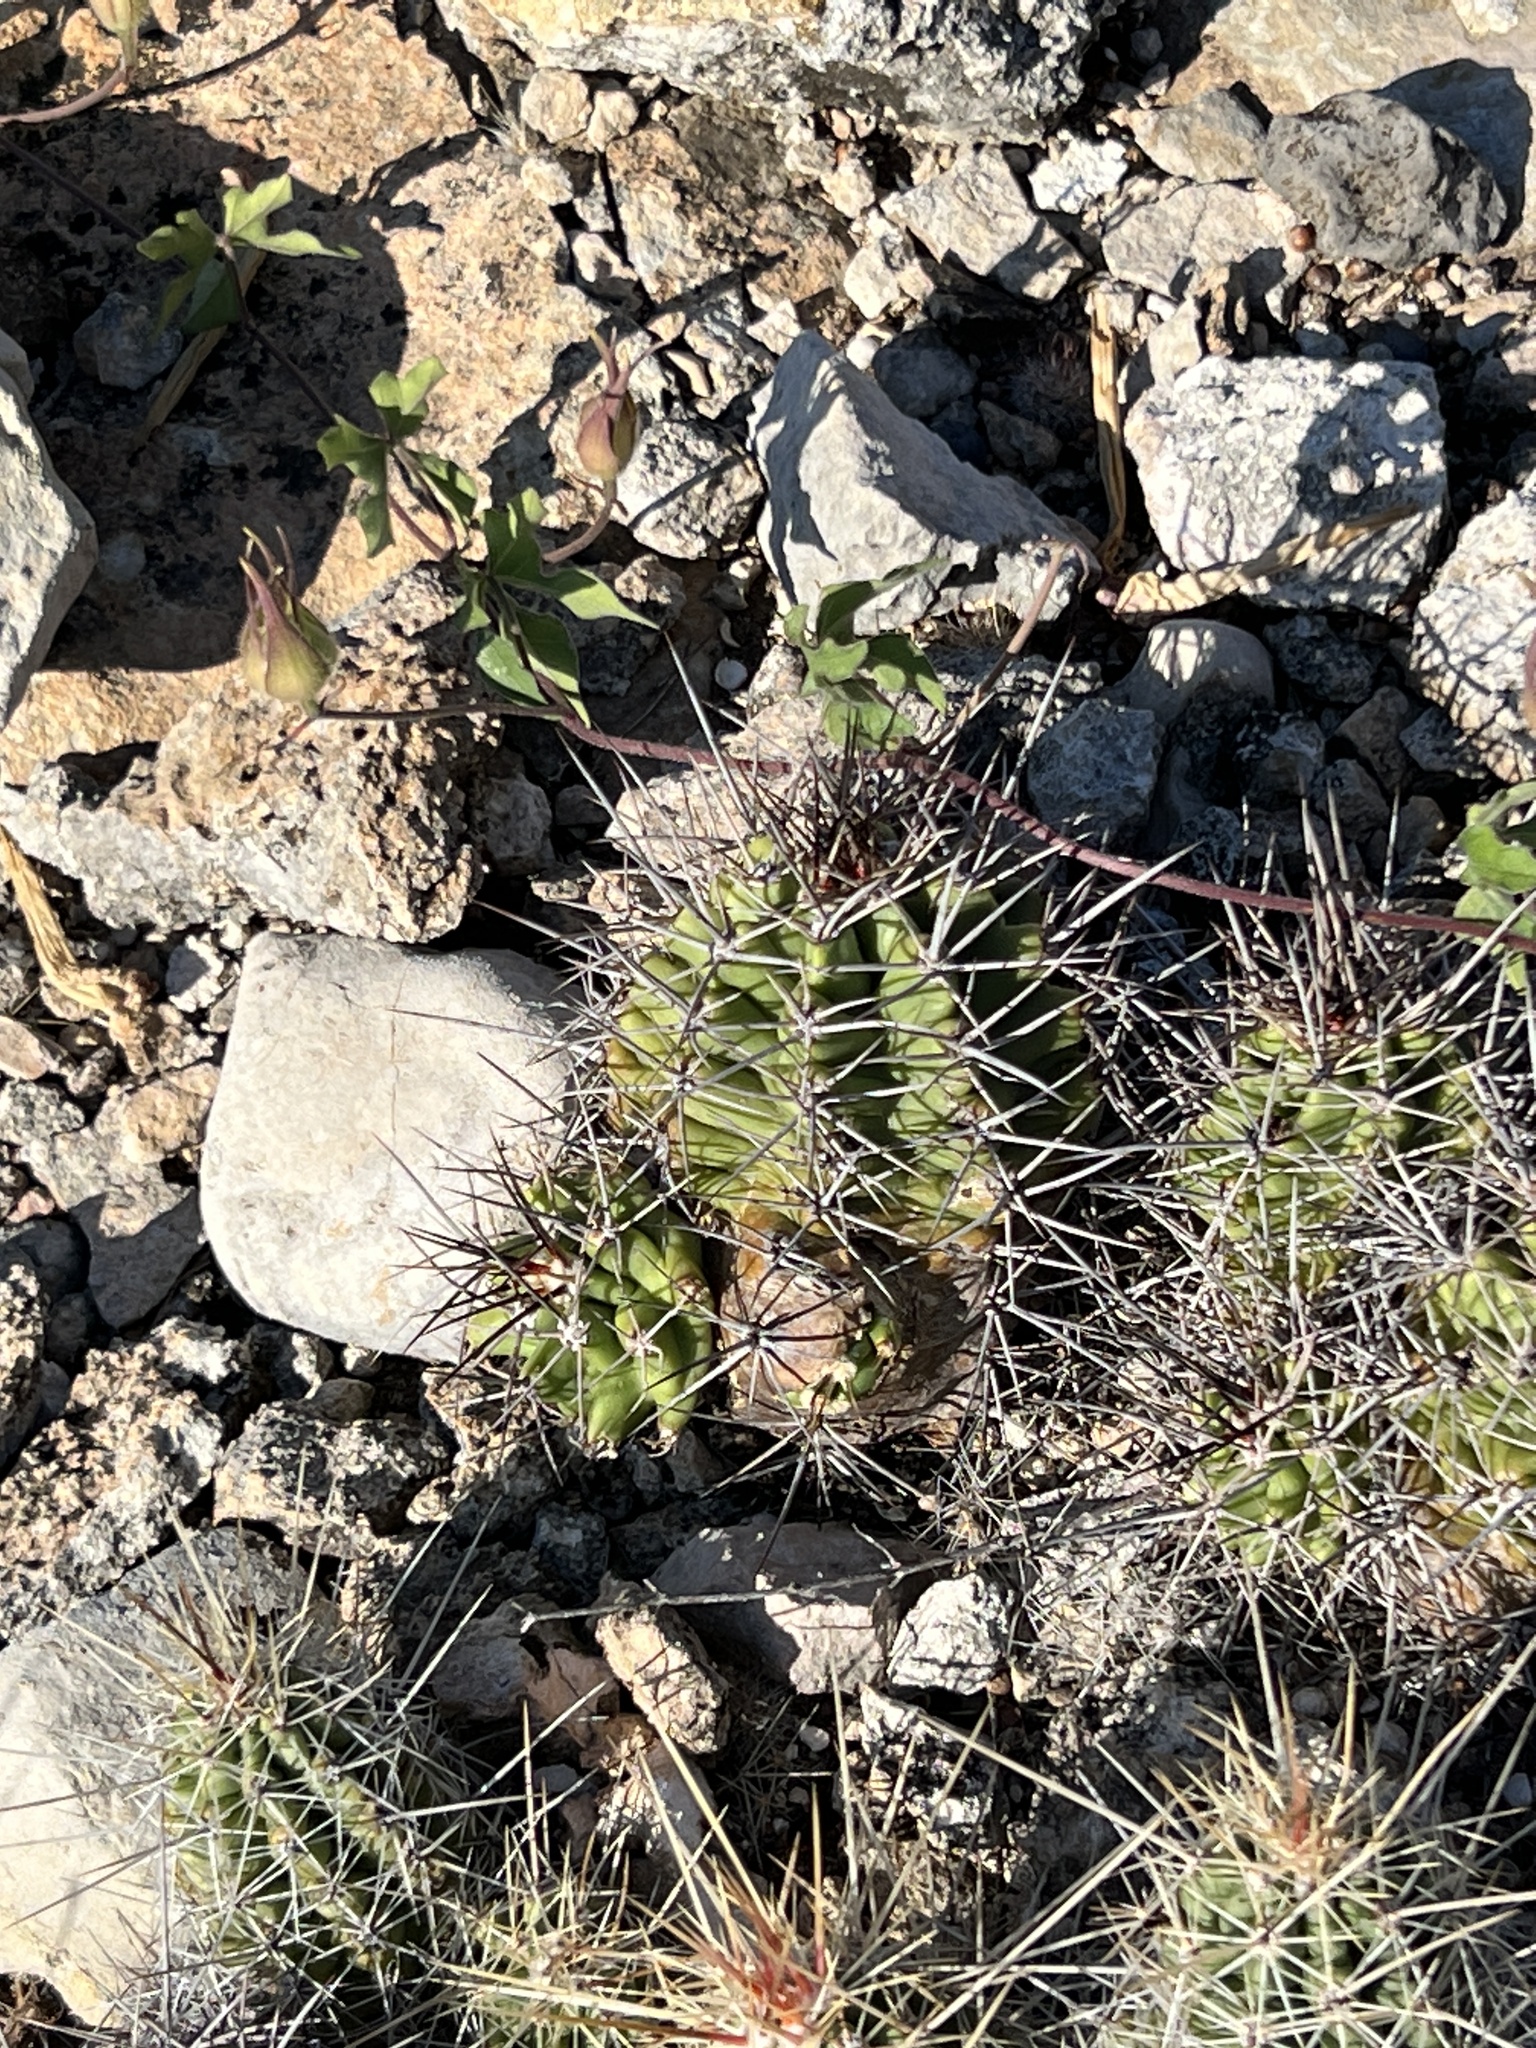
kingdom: Plantae
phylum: Tracheophyta
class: Magnoliopsida
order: Caryophyllales
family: Cactaceae
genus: Echinocereus
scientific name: Echinocereus coccineus
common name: Scarlet hedgehog cactus
